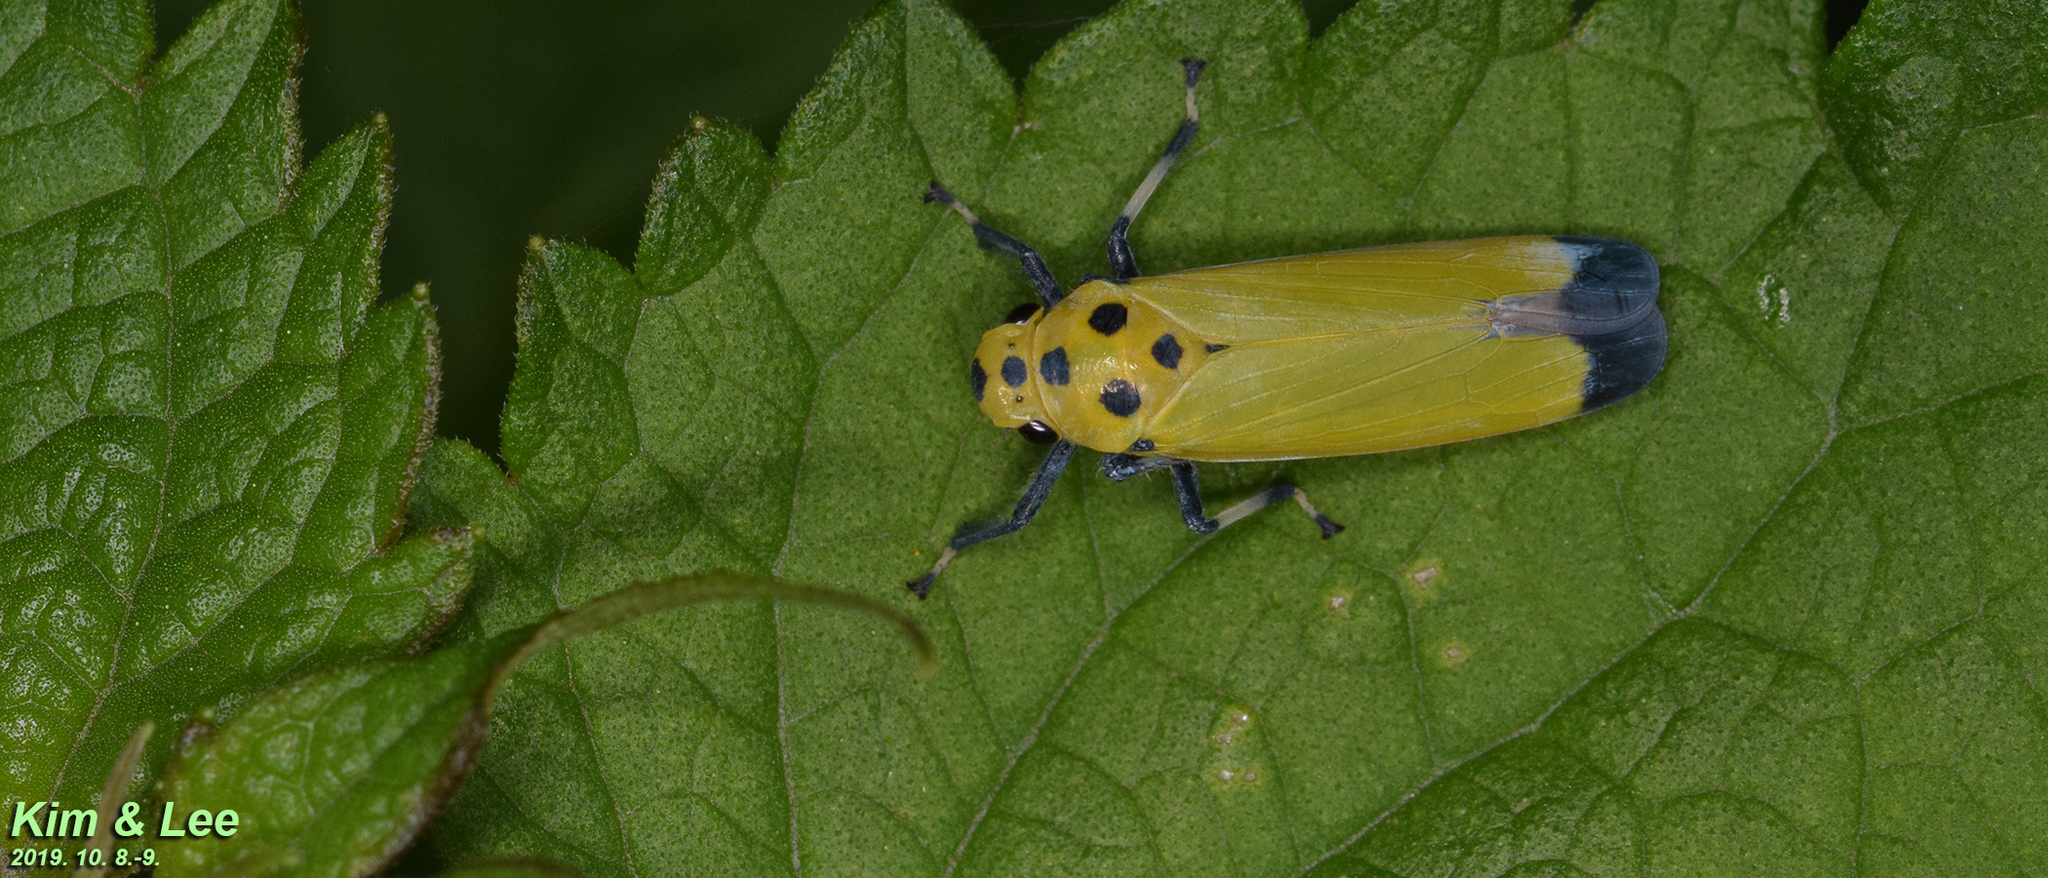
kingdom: Animalia
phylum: Arthropoda
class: Insecta
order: Hemiptera
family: Cicadellidae
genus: Bothrogonia
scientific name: Bothrogonia ferruginea
